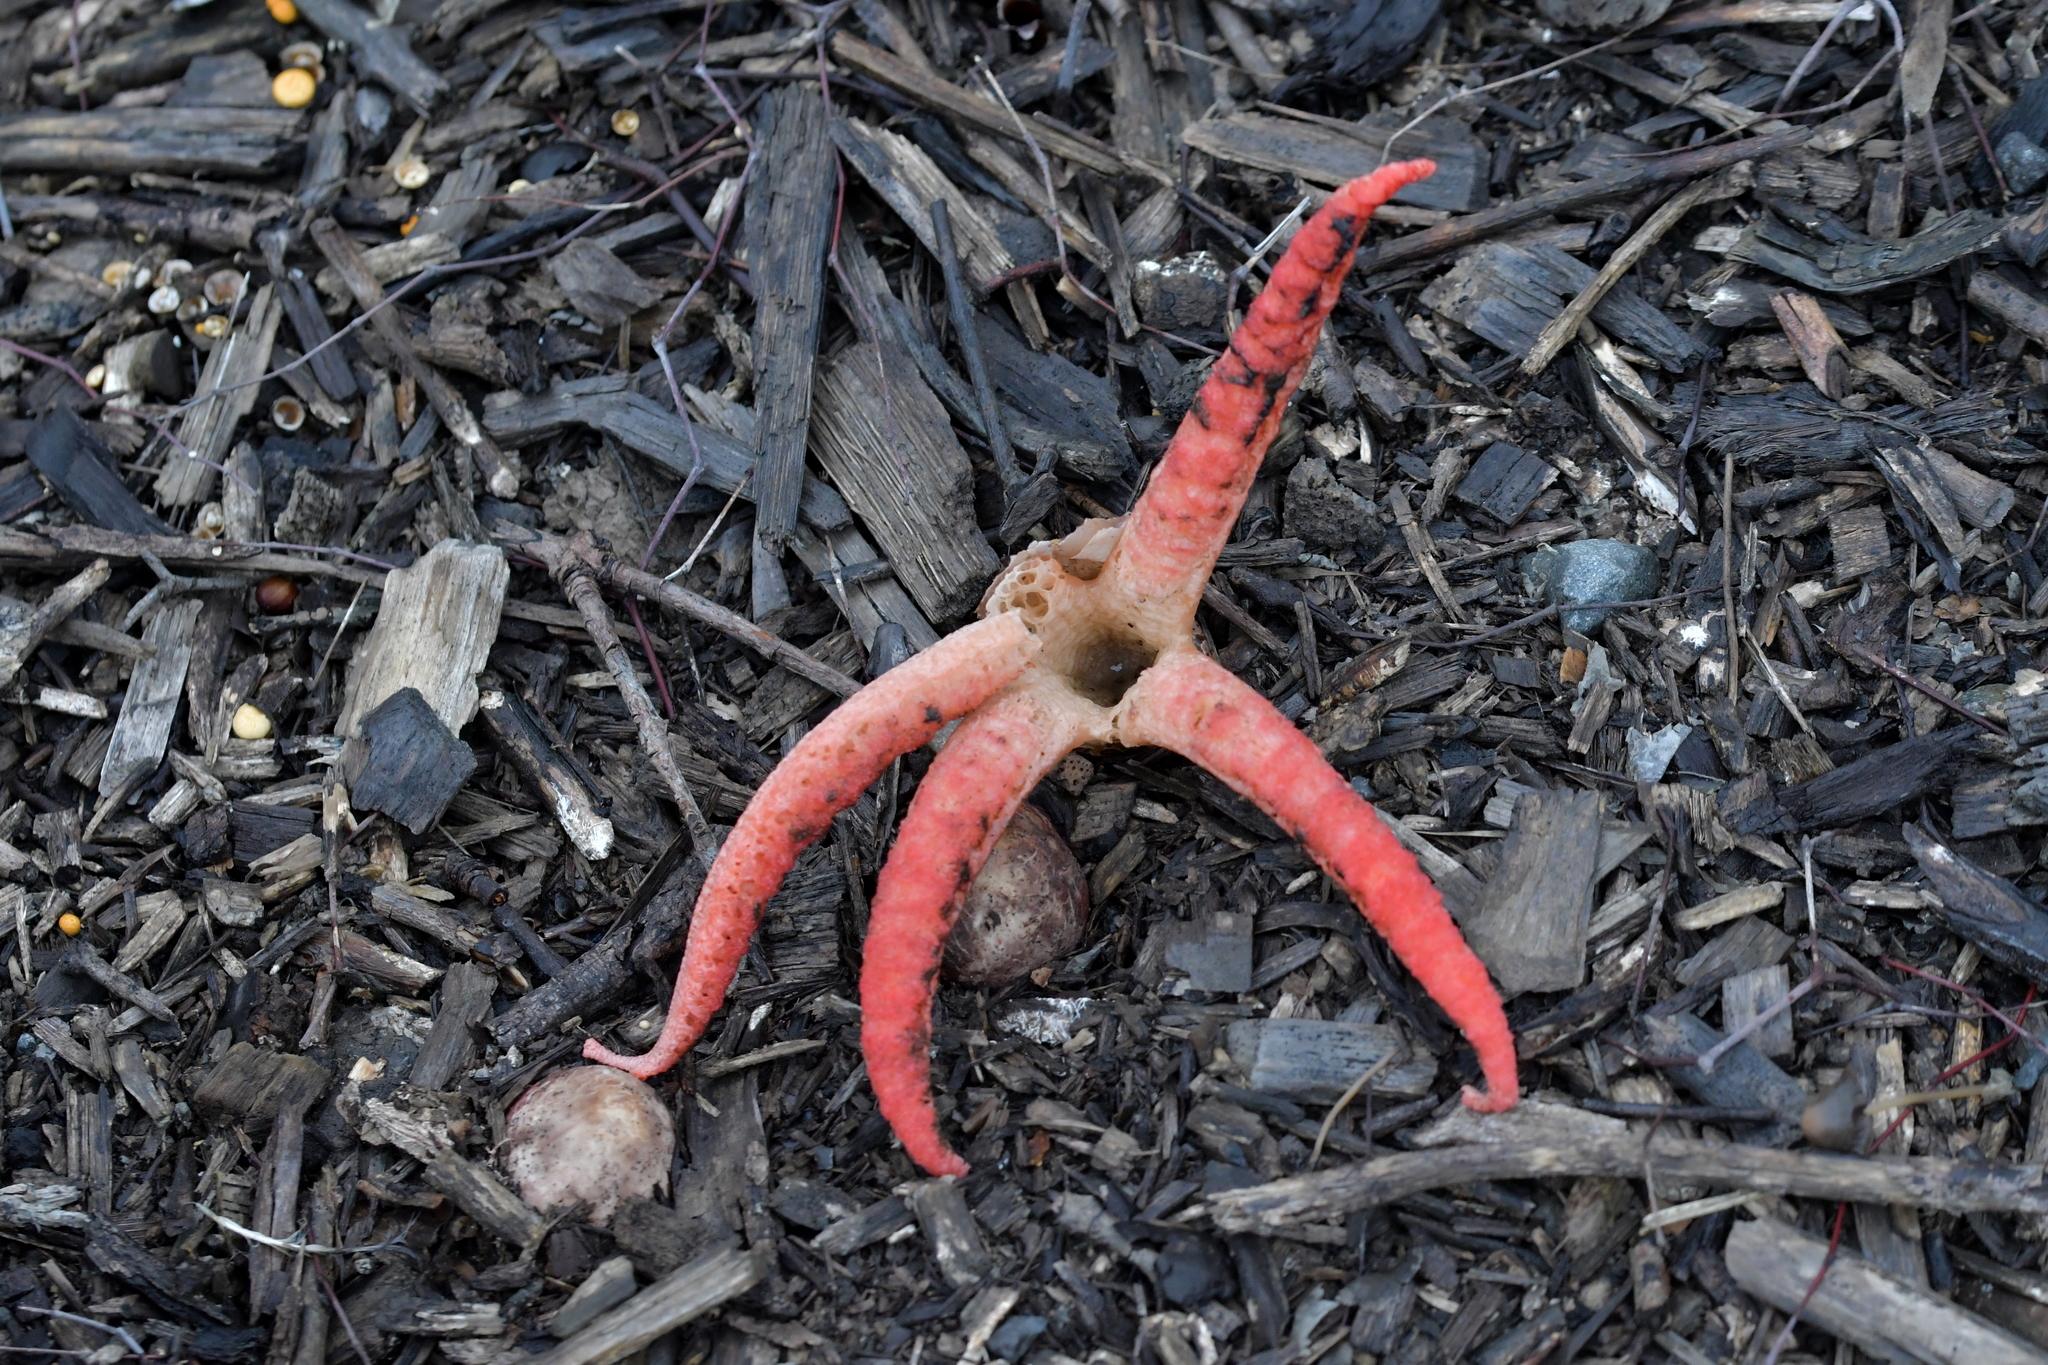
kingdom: Fungi
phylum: Basidiomycota
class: Agaricomycetes
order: Phallales
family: Phallaceae
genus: Clathrus
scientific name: Clathrus archeri
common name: Devil's fingers
